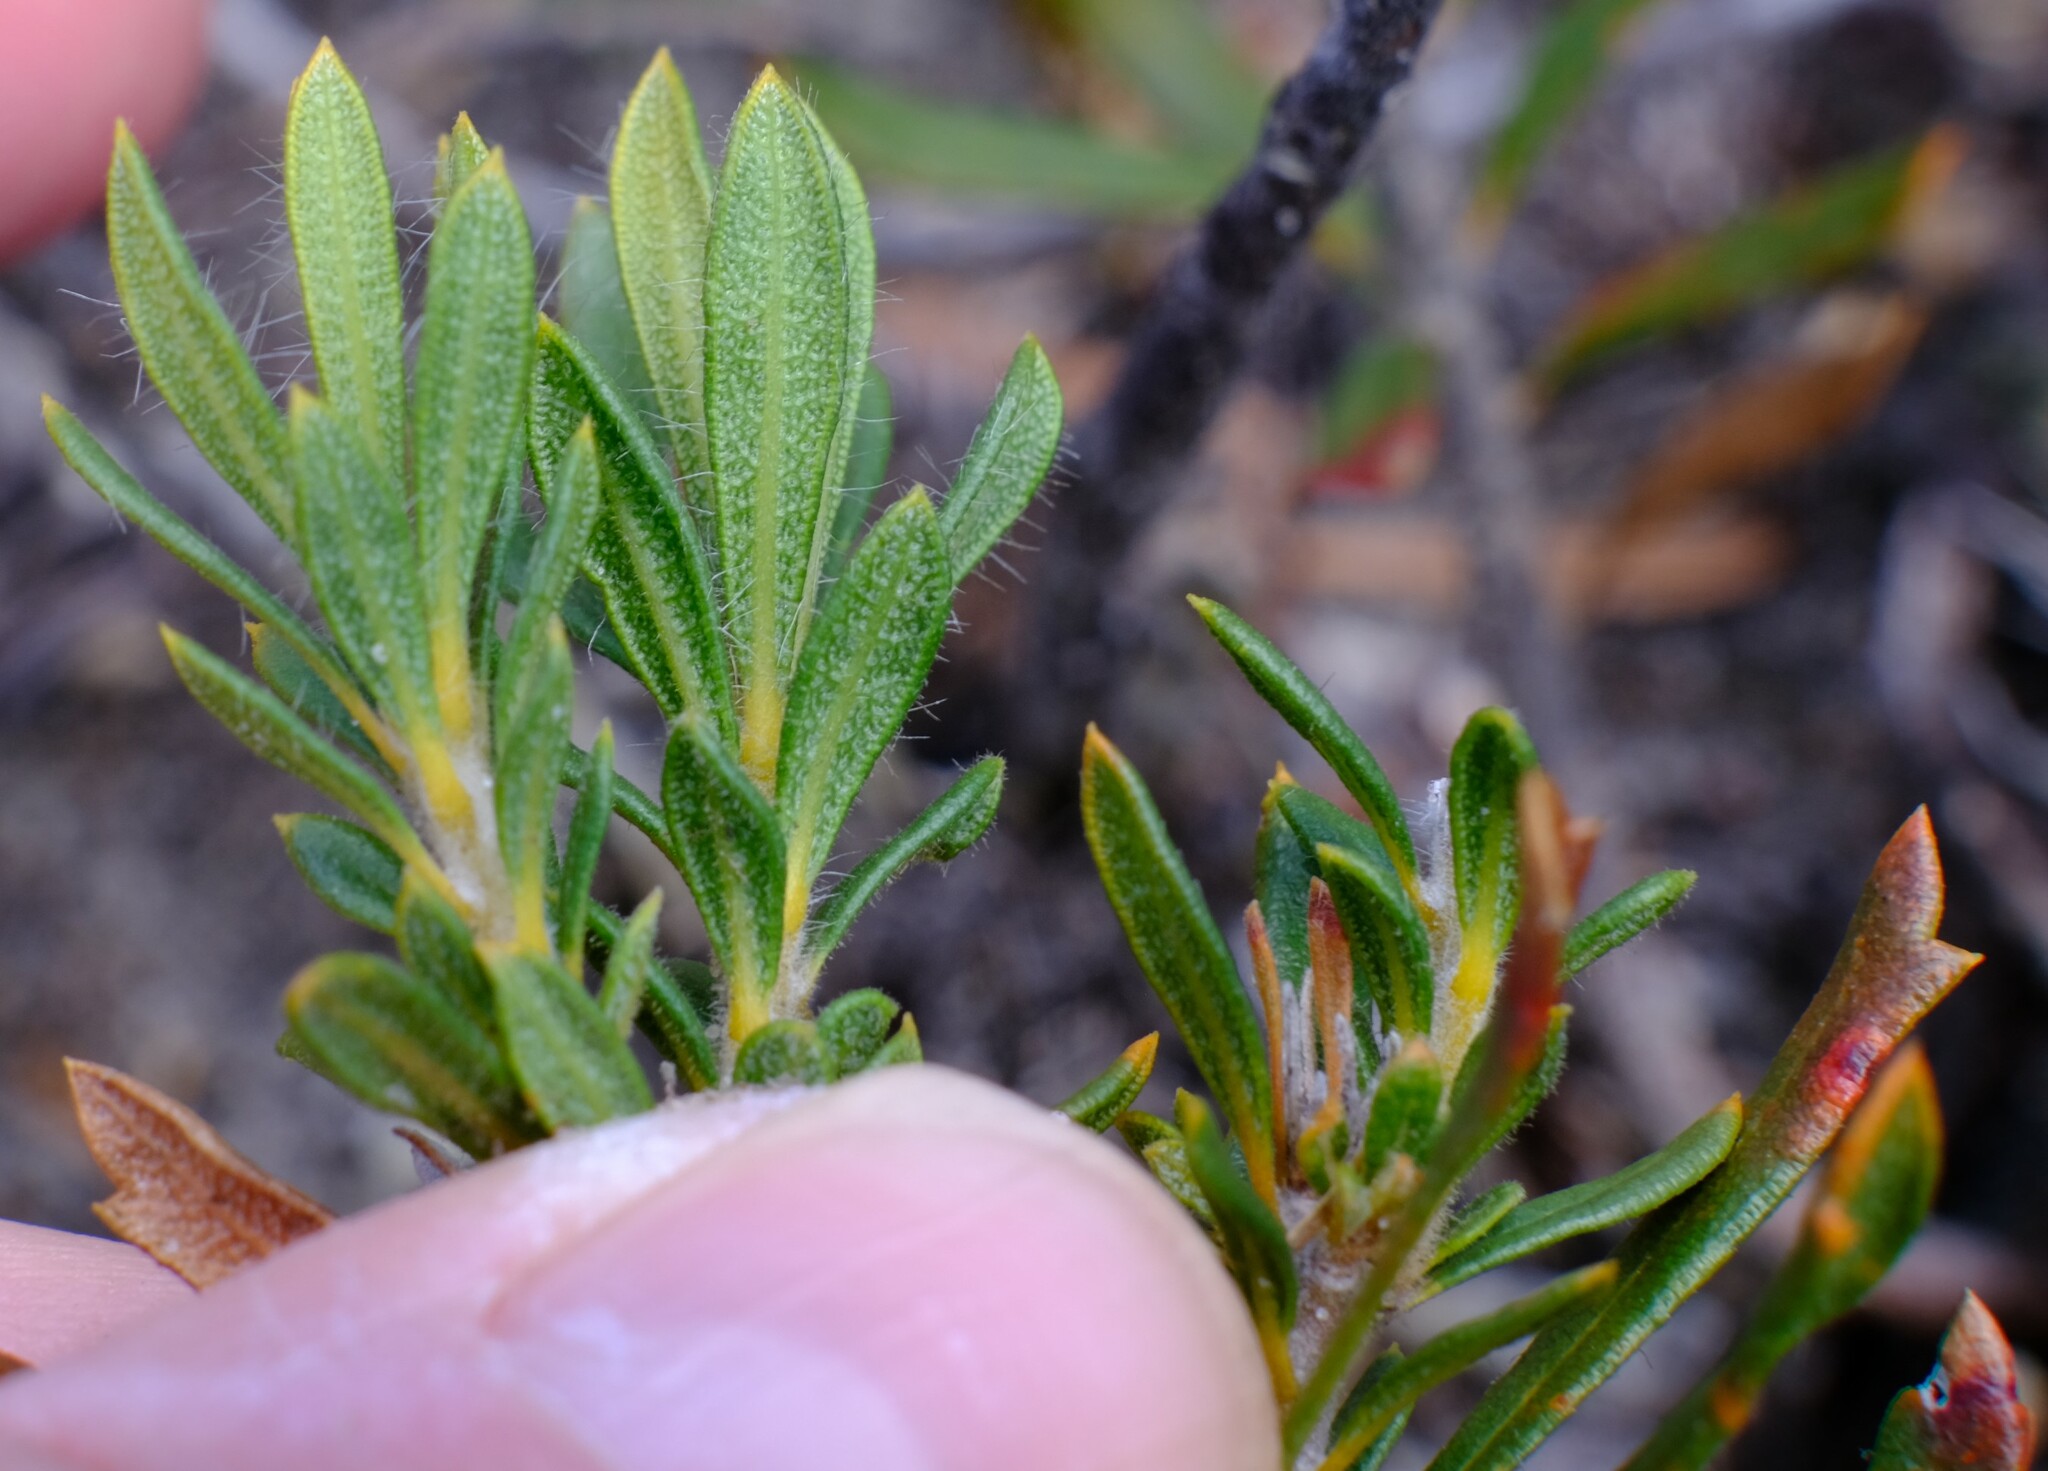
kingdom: Plantae
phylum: Tracheophyta
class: Magnoliopsida
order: Proteales
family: Proteaceae
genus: Banksia
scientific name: Banksia tridentata
